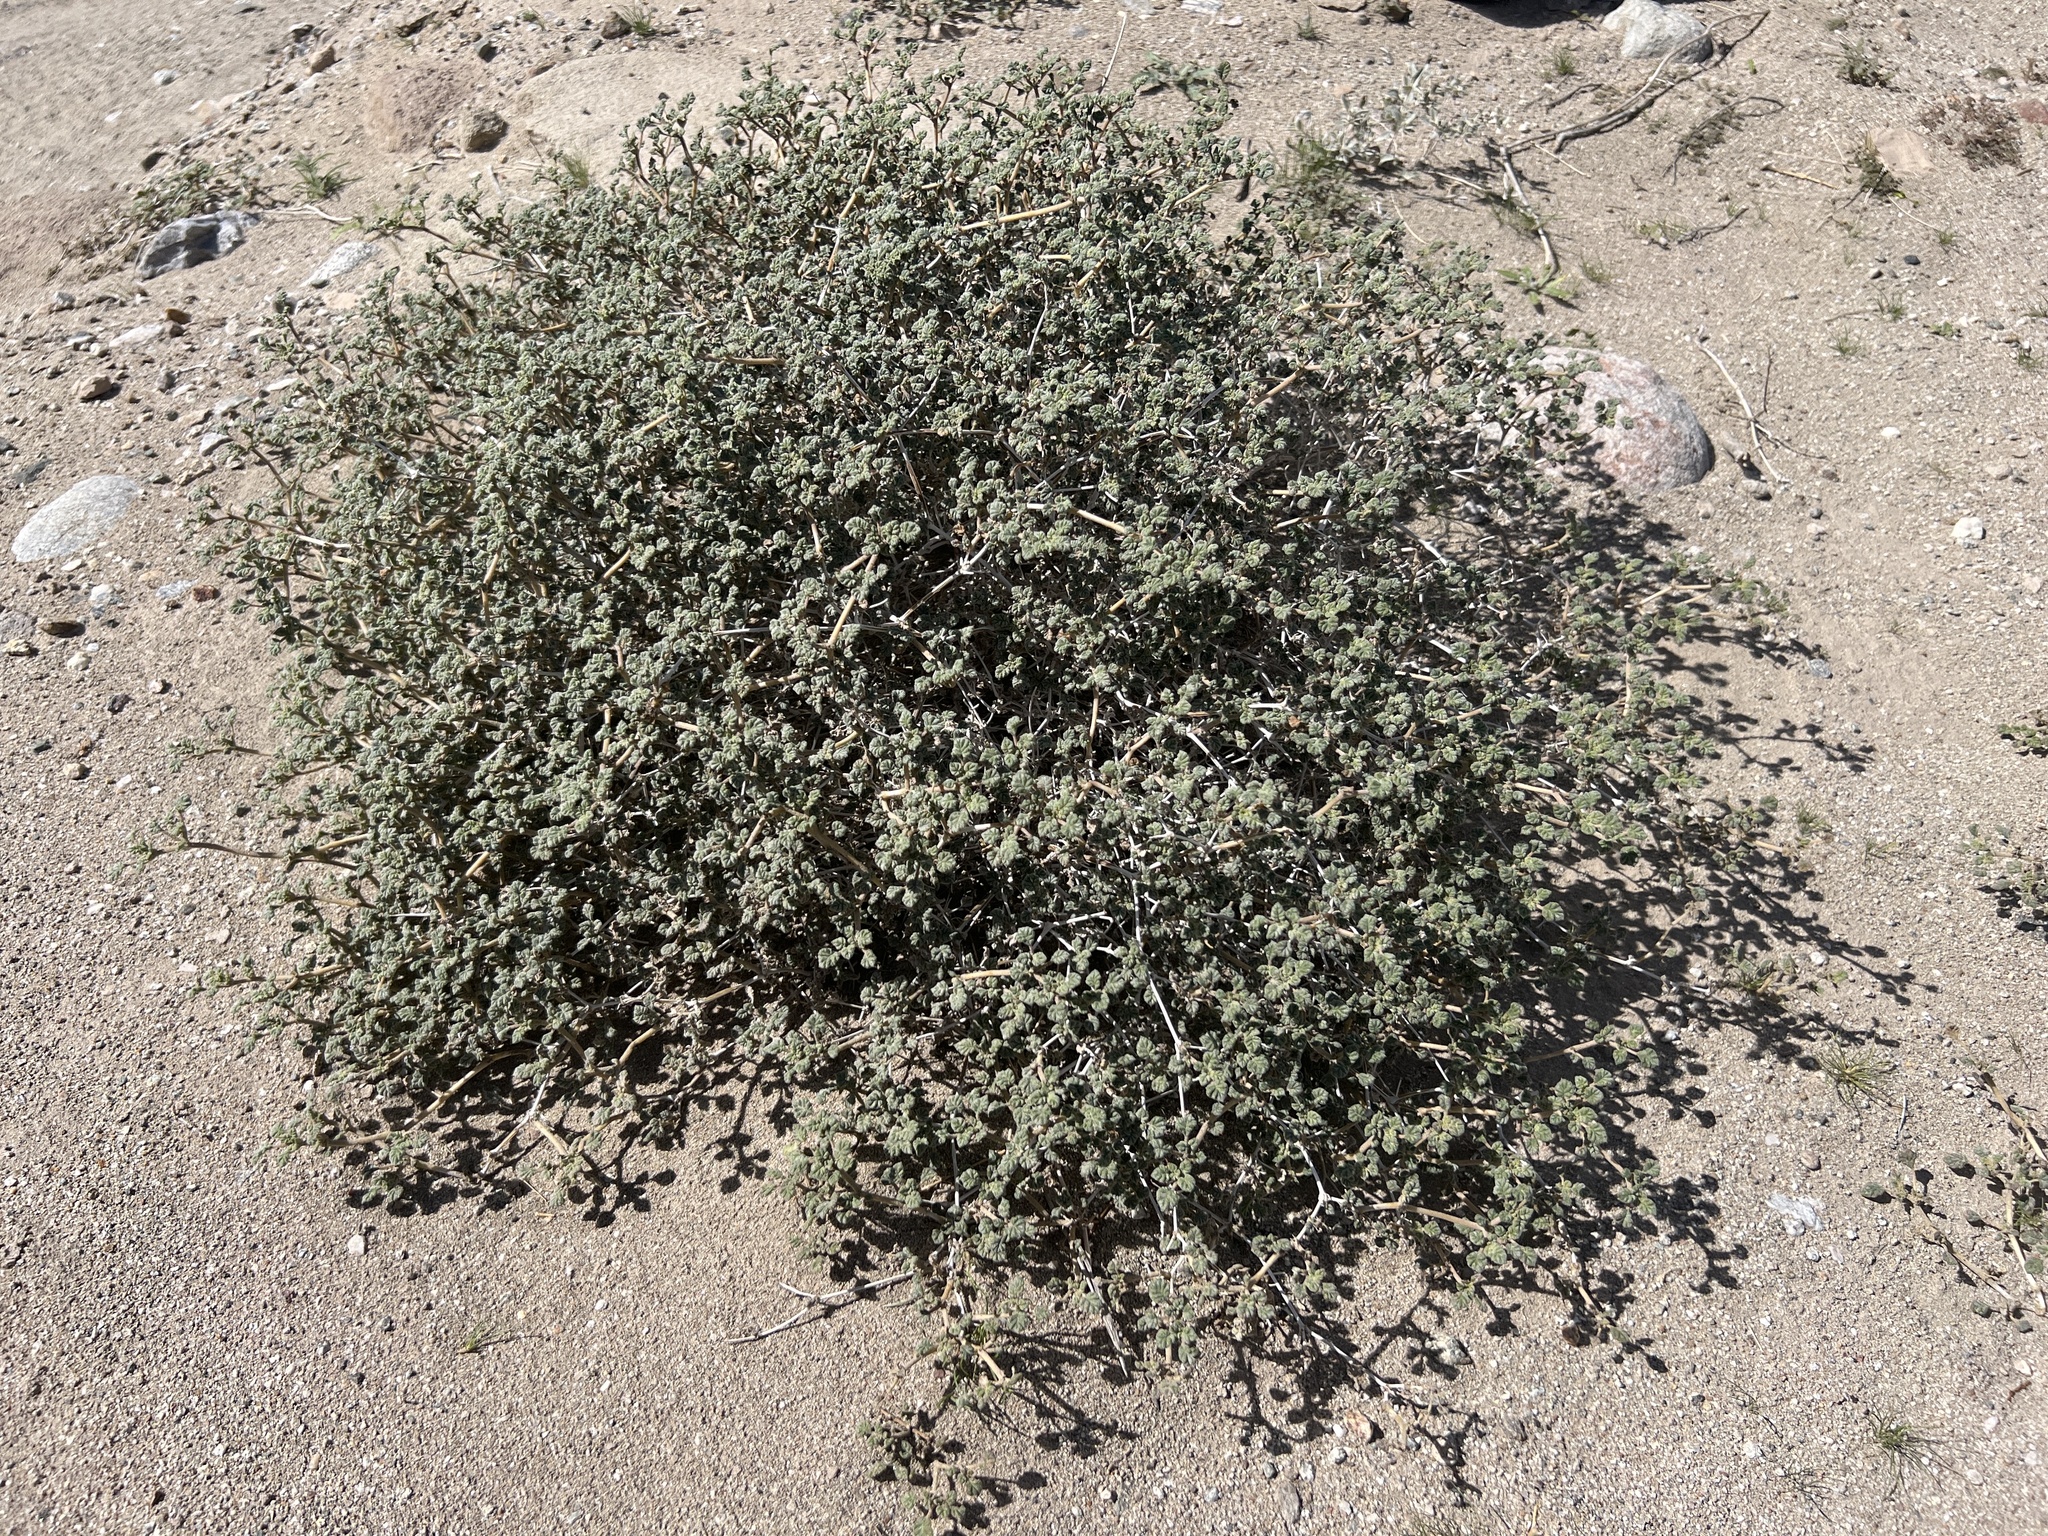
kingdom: Plantae
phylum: Tracheophyta
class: Magnoliopsida
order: Boraginales
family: Ehretiaceae
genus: Tiquilia
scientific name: Tiquilia palmeri
